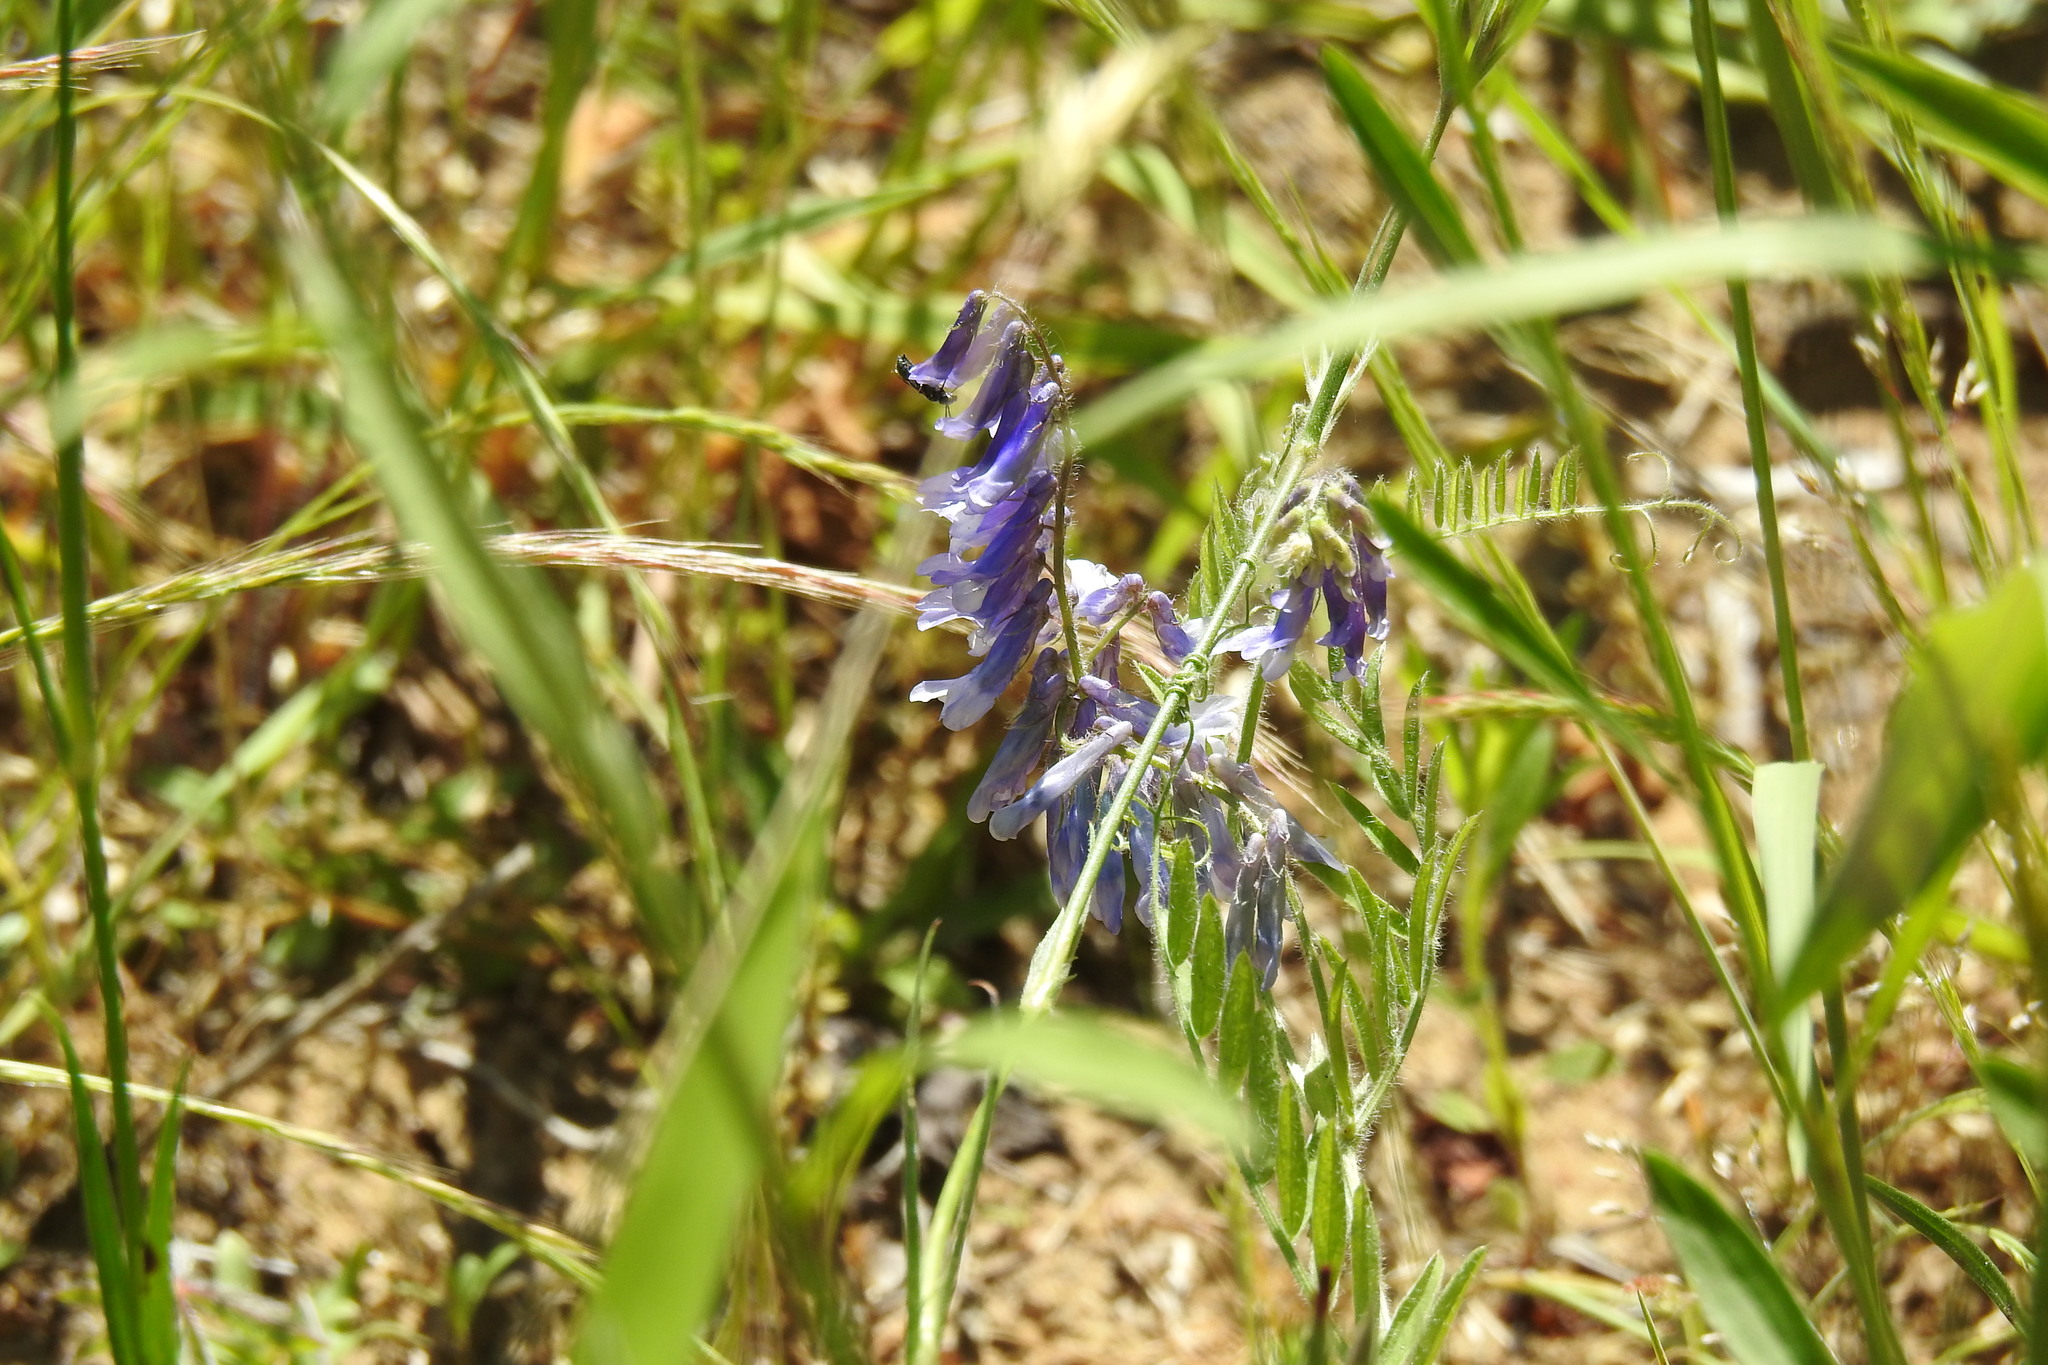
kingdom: Plantae
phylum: Tracheophyta
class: Magnoliopsida
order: Fabales
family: Fabaceae
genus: Vicia
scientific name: Vicia villosa
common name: Fodder vetch
